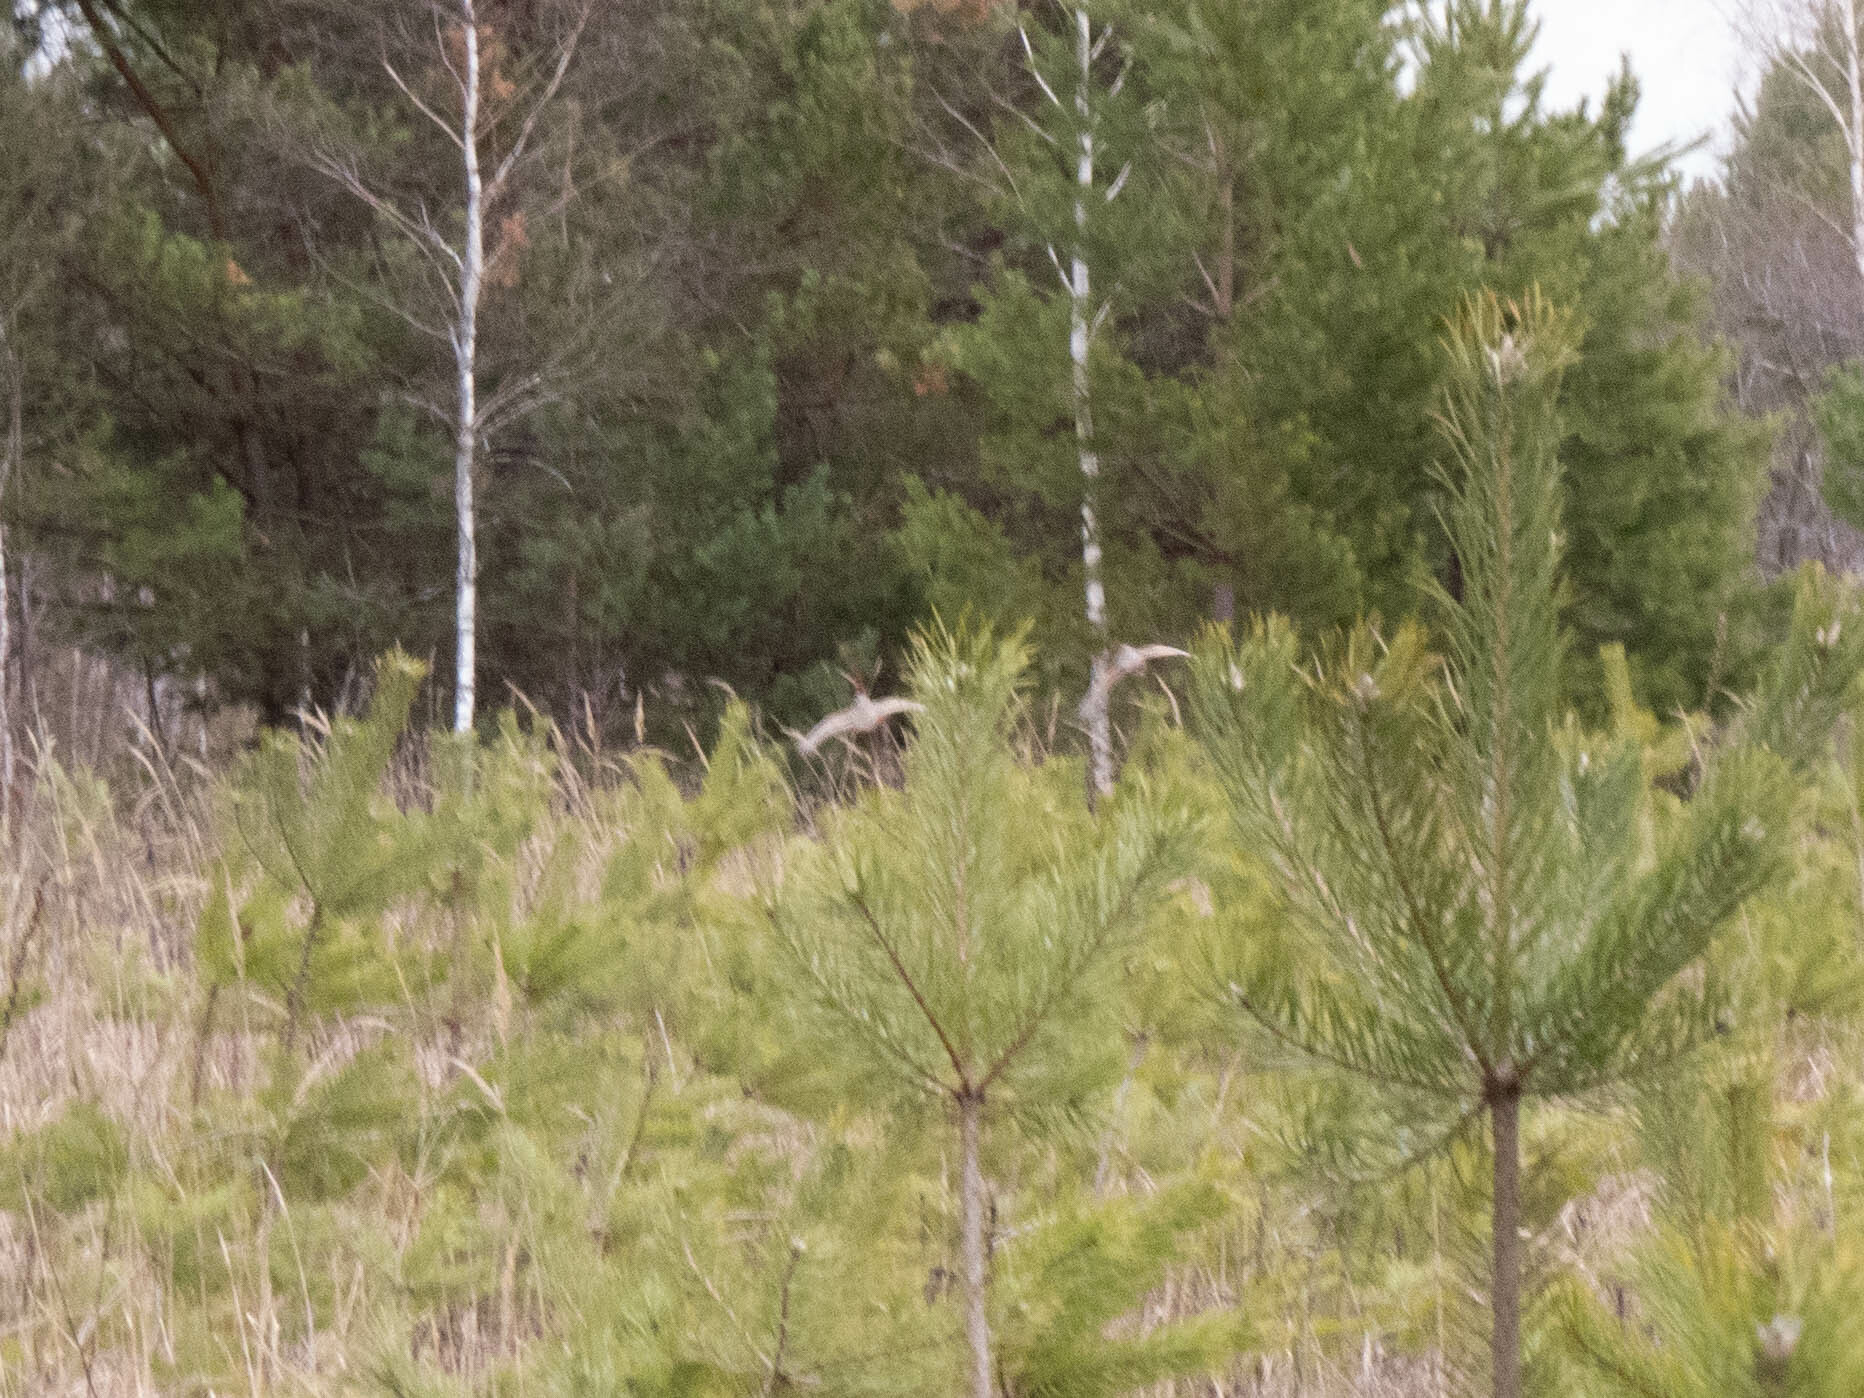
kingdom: Animalia
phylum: Chordata
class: Aves
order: Galliformes
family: Phasianidae
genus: Perdix
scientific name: Perdix perdix
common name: Grey partridge
